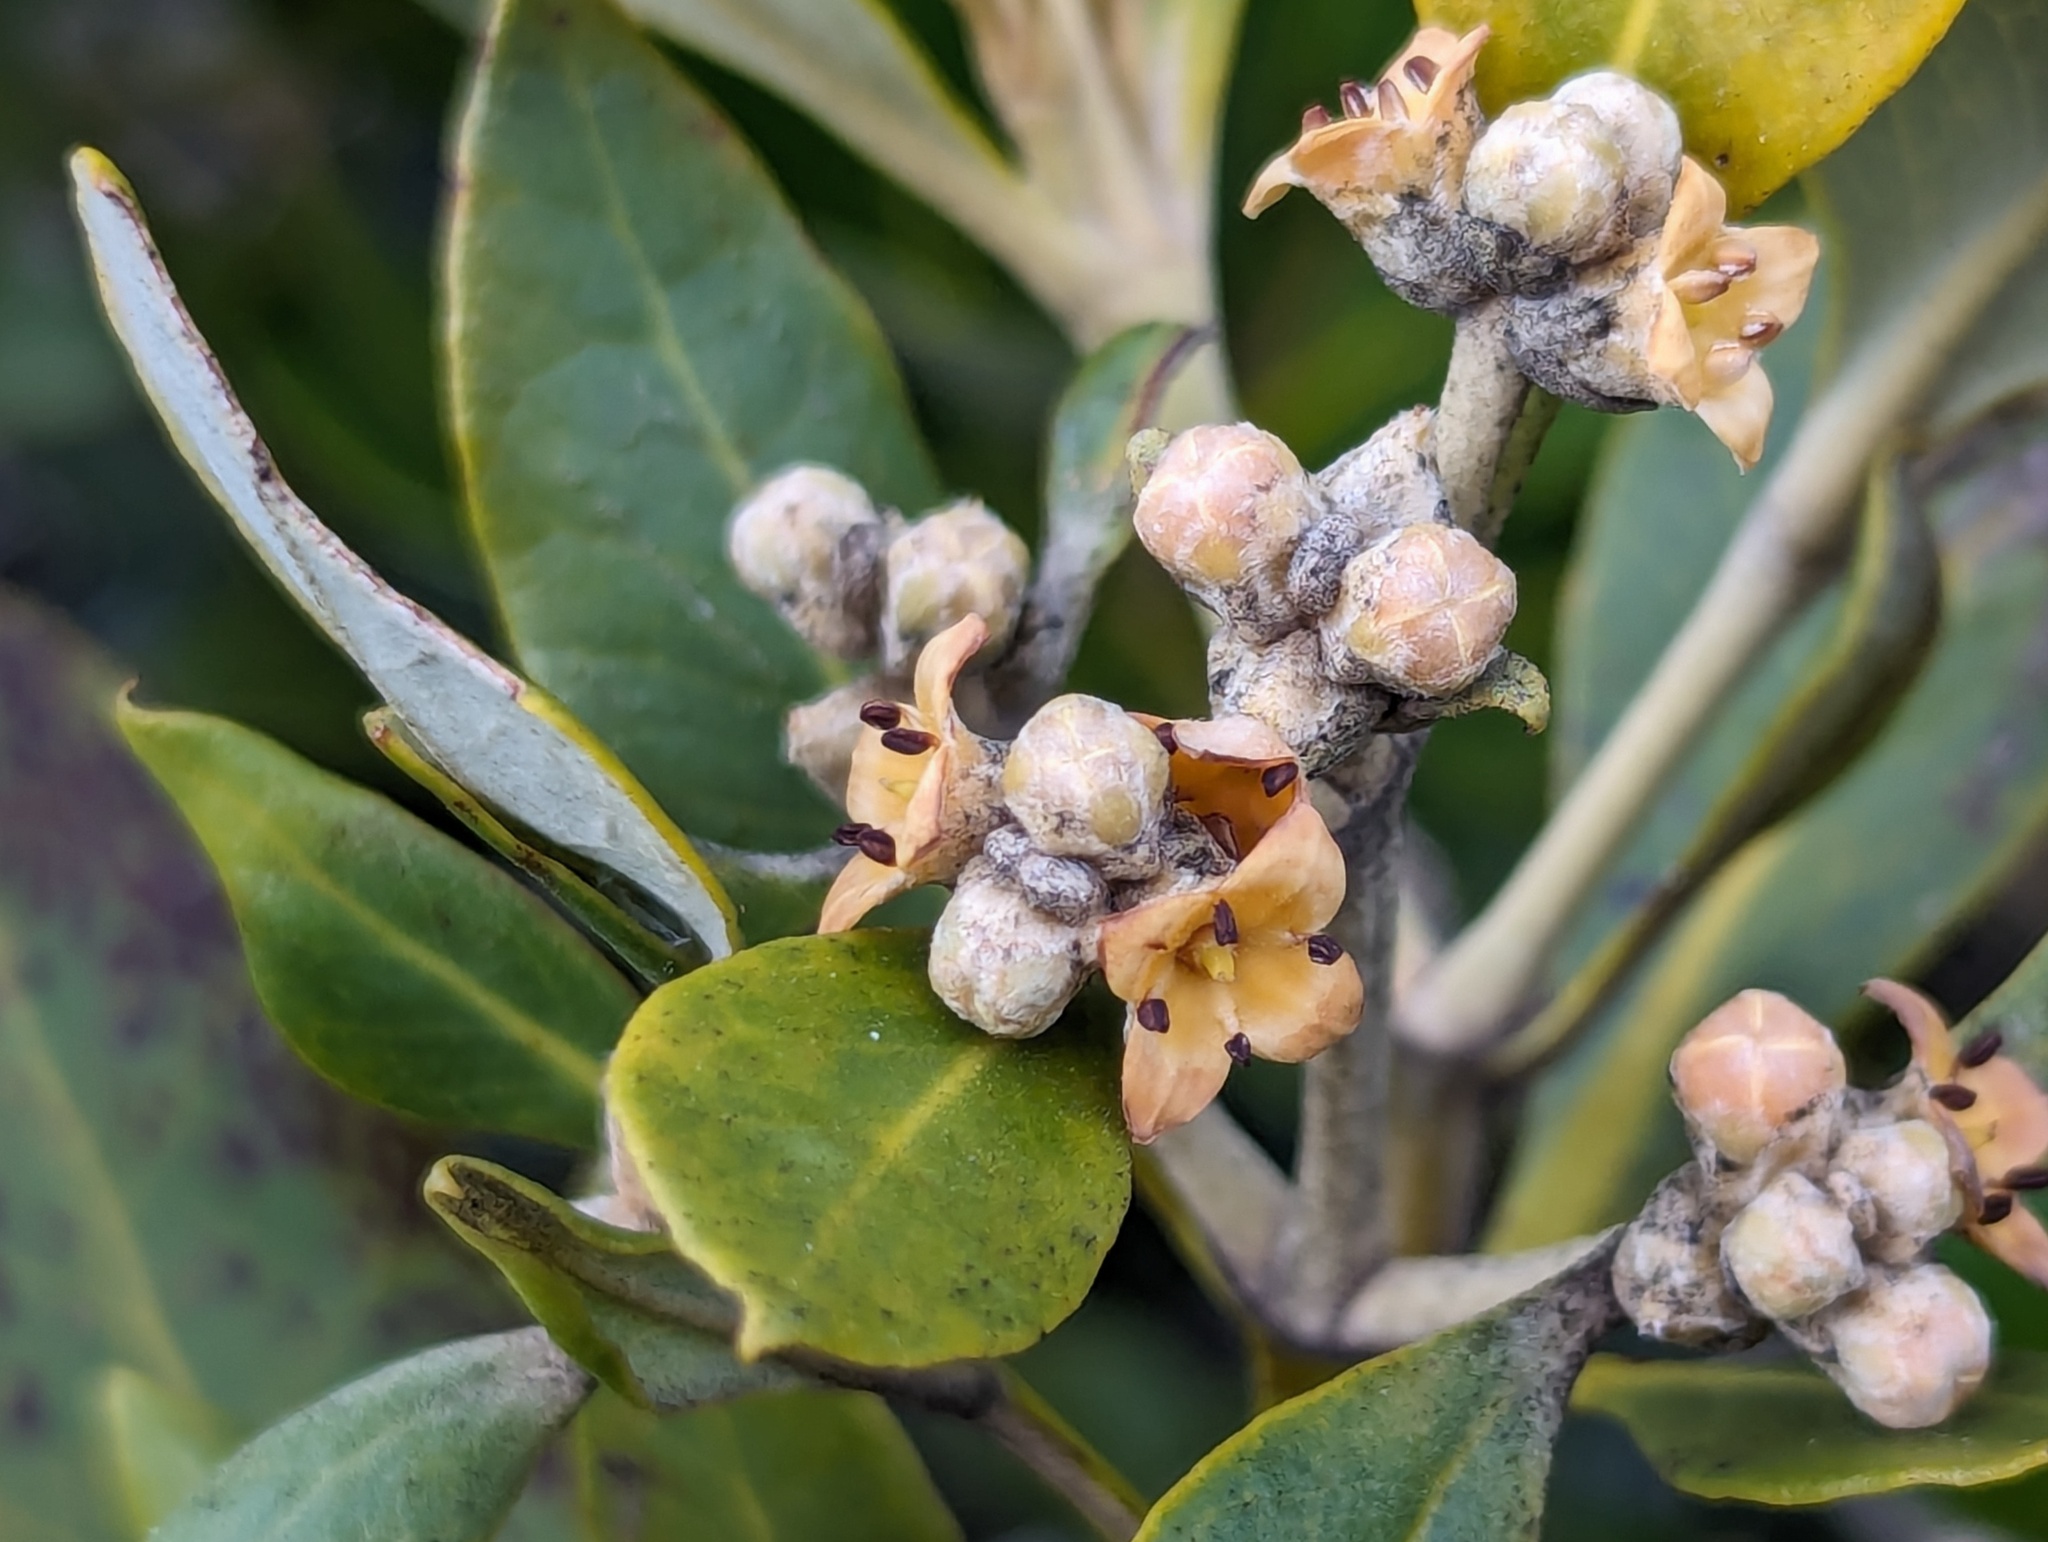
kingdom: Plantae
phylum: Tracheophyta
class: Magnoliopsida
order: Lamiales
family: Acanthaceae
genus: Avicennia
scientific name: Avicennia marina
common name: Gray mangrove
